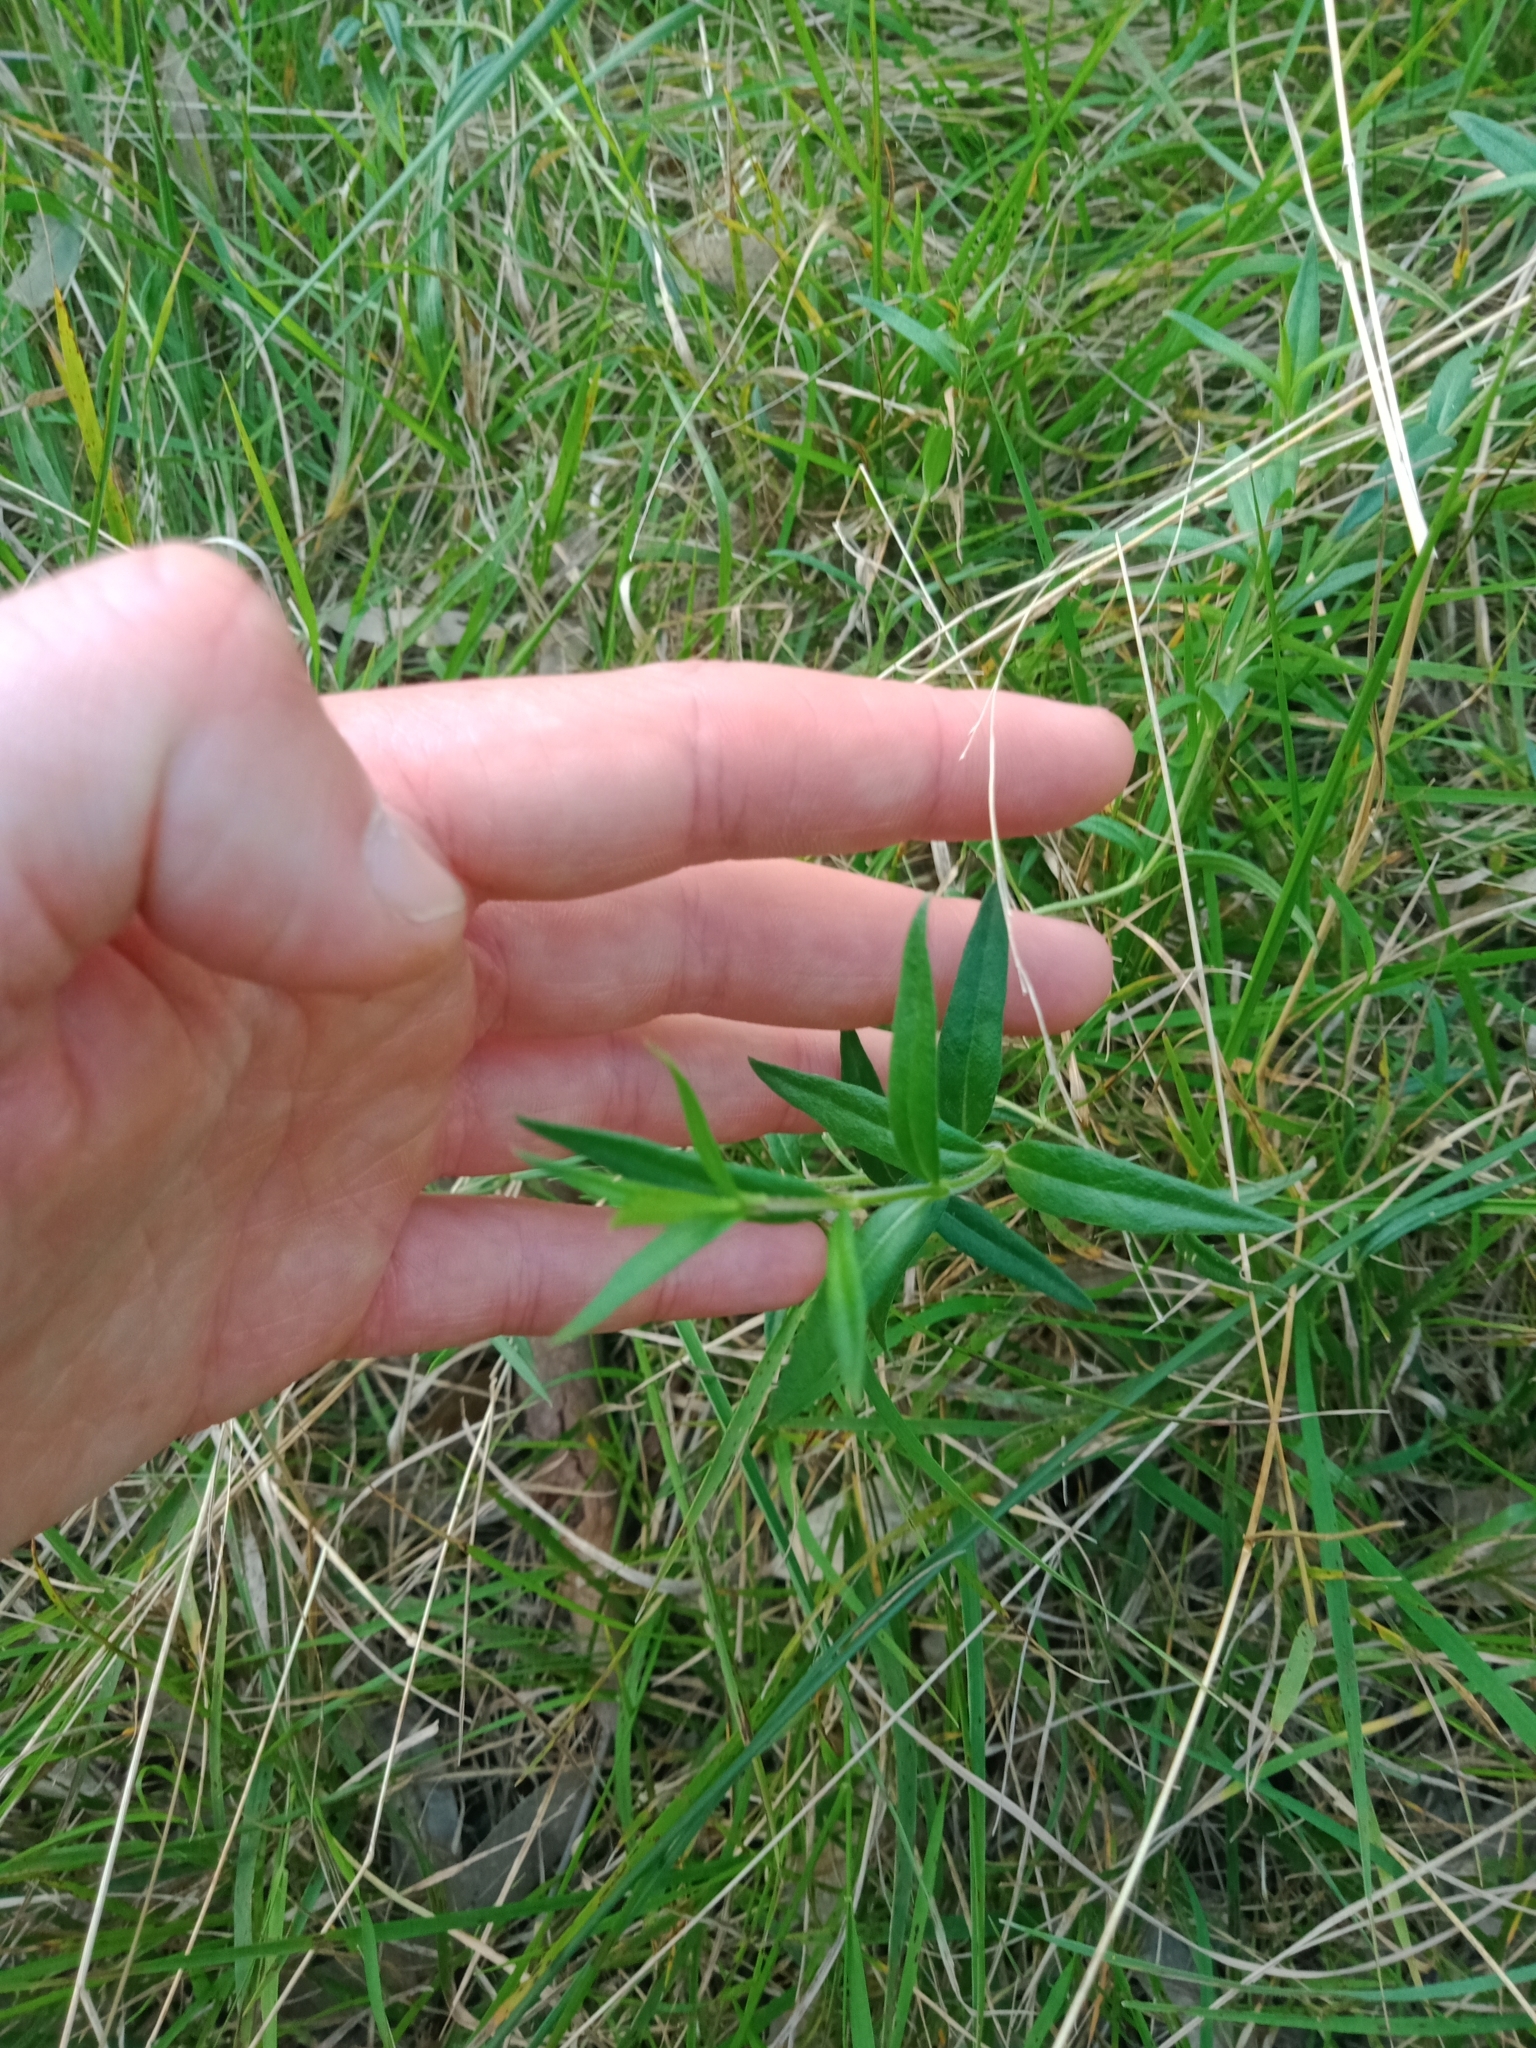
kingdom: Plantae
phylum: Tracheophyta
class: Magnoliopsida
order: Lamiales
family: Plantaginaceae
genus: Veronica
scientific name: Veronica gracilis
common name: Slender speedwell
